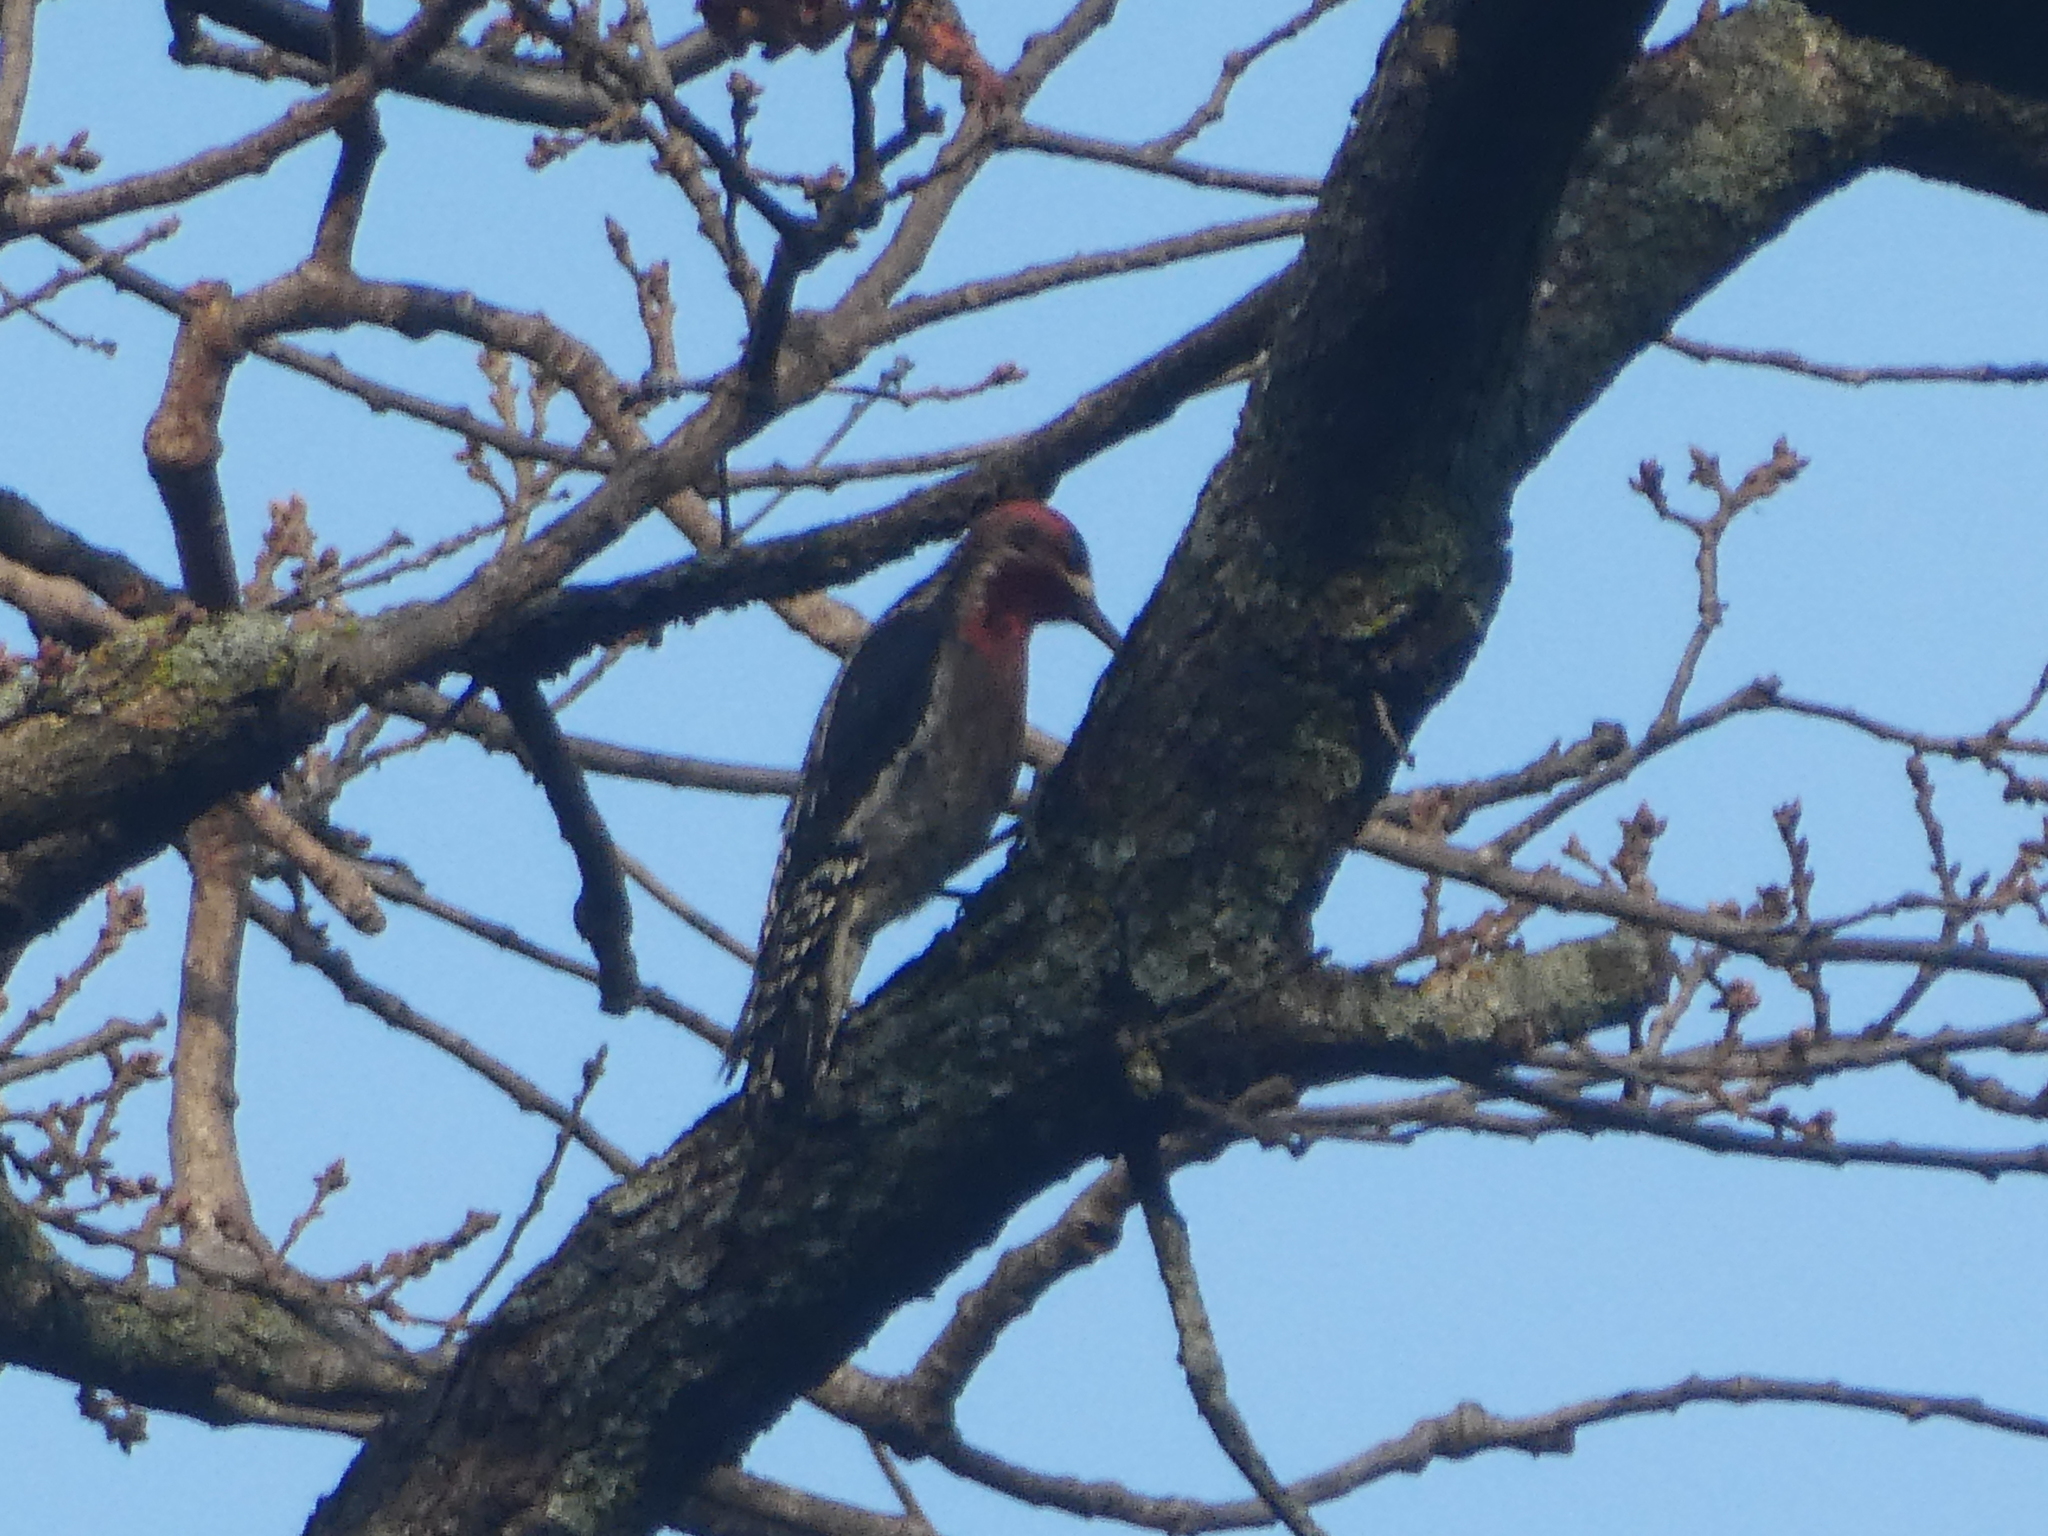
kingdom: Animalia
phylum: Chordata
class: Aves
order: Piciformes
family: Picidae
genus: Sphyrapicus
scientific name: Sphyrapicus
